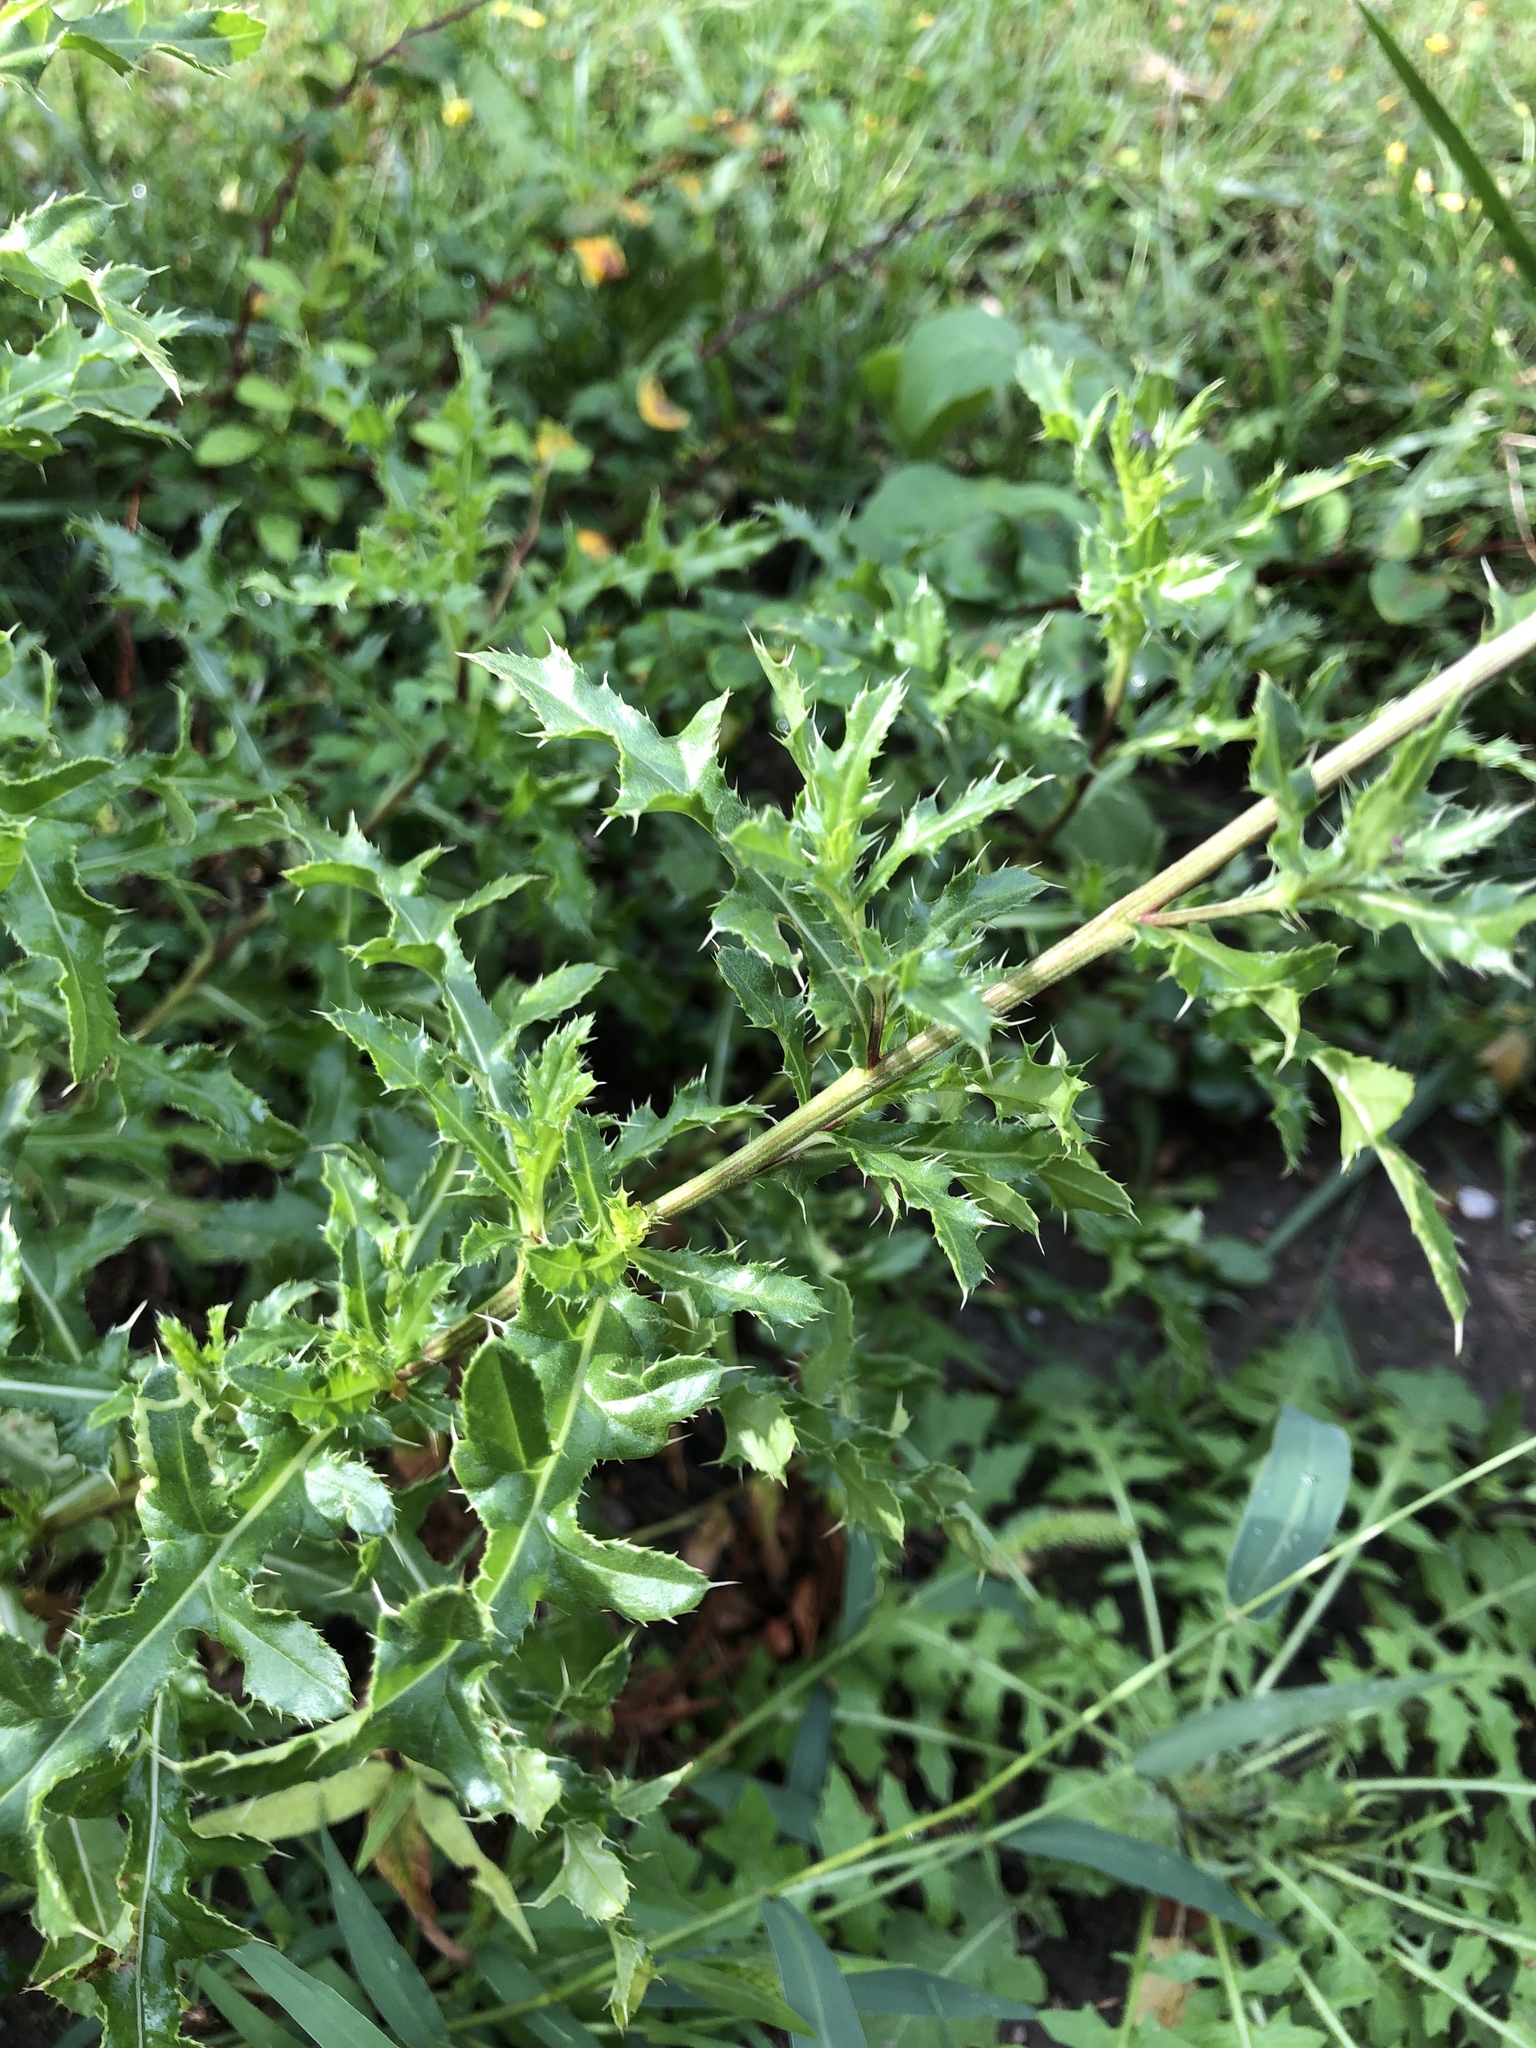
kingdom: Plantae
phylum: Tracheophyta
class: Magnoliopsida
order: Asterales
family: Asteraceae
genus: Cirsium
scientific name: Cirsium arvense
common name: Creeping thistle
